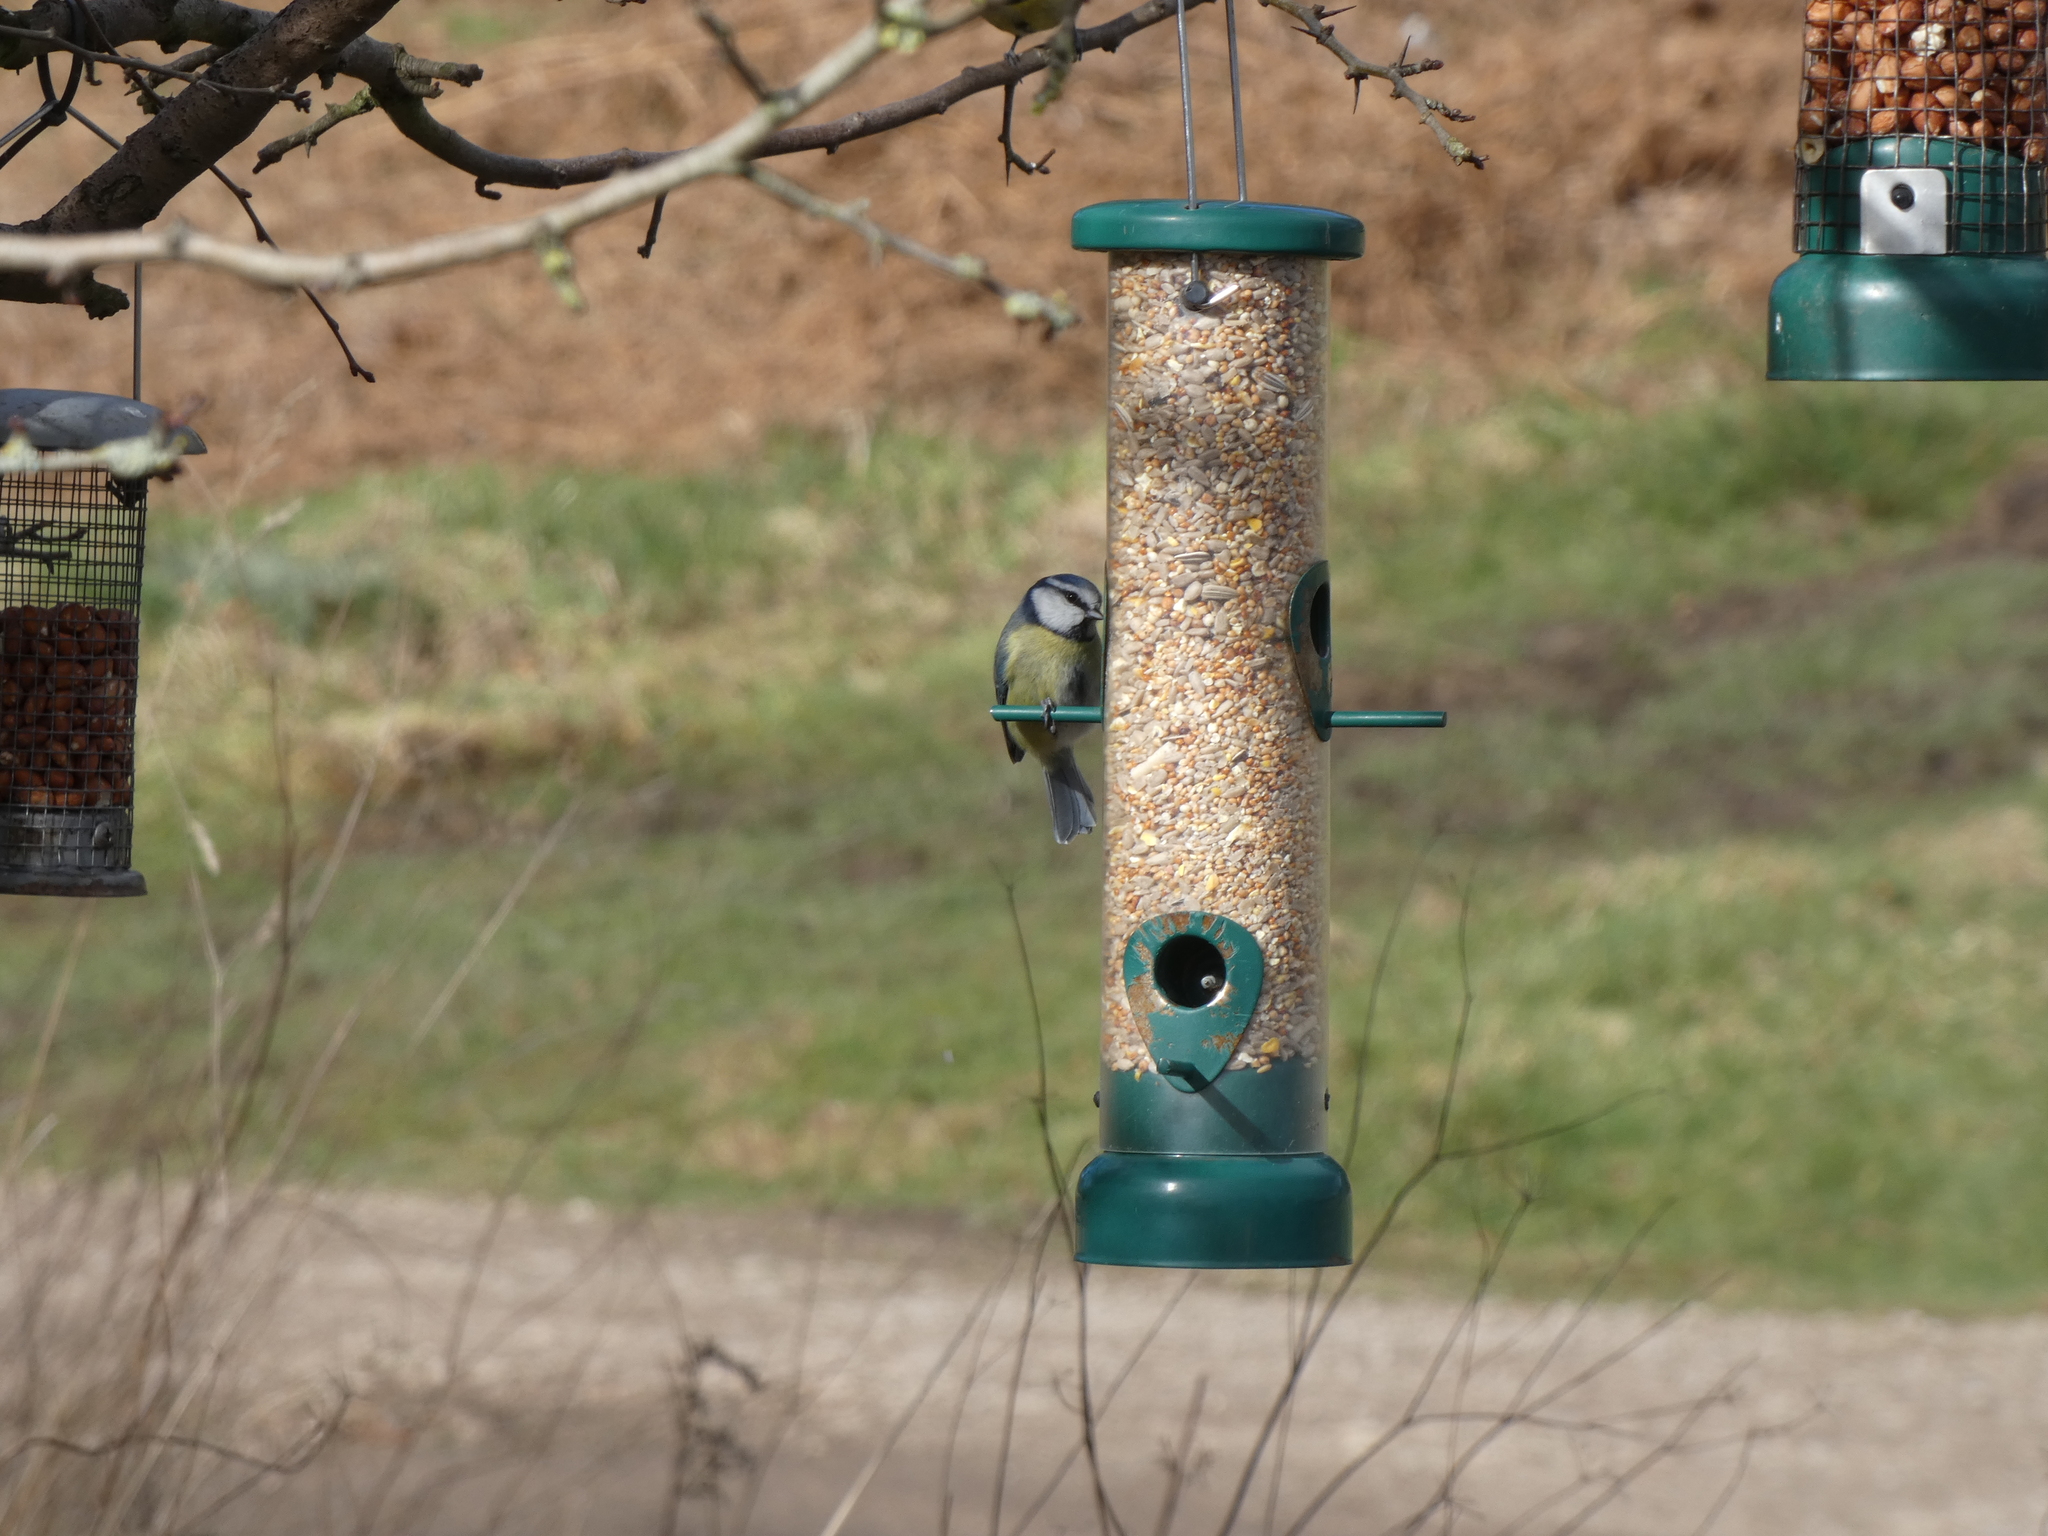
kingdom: Animalia
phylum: Chordata
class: Aves
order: Passeriformes
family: Paridae
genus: Cyanistes
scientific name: Cyanistes caeruleus
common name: Eurasian blue tit
